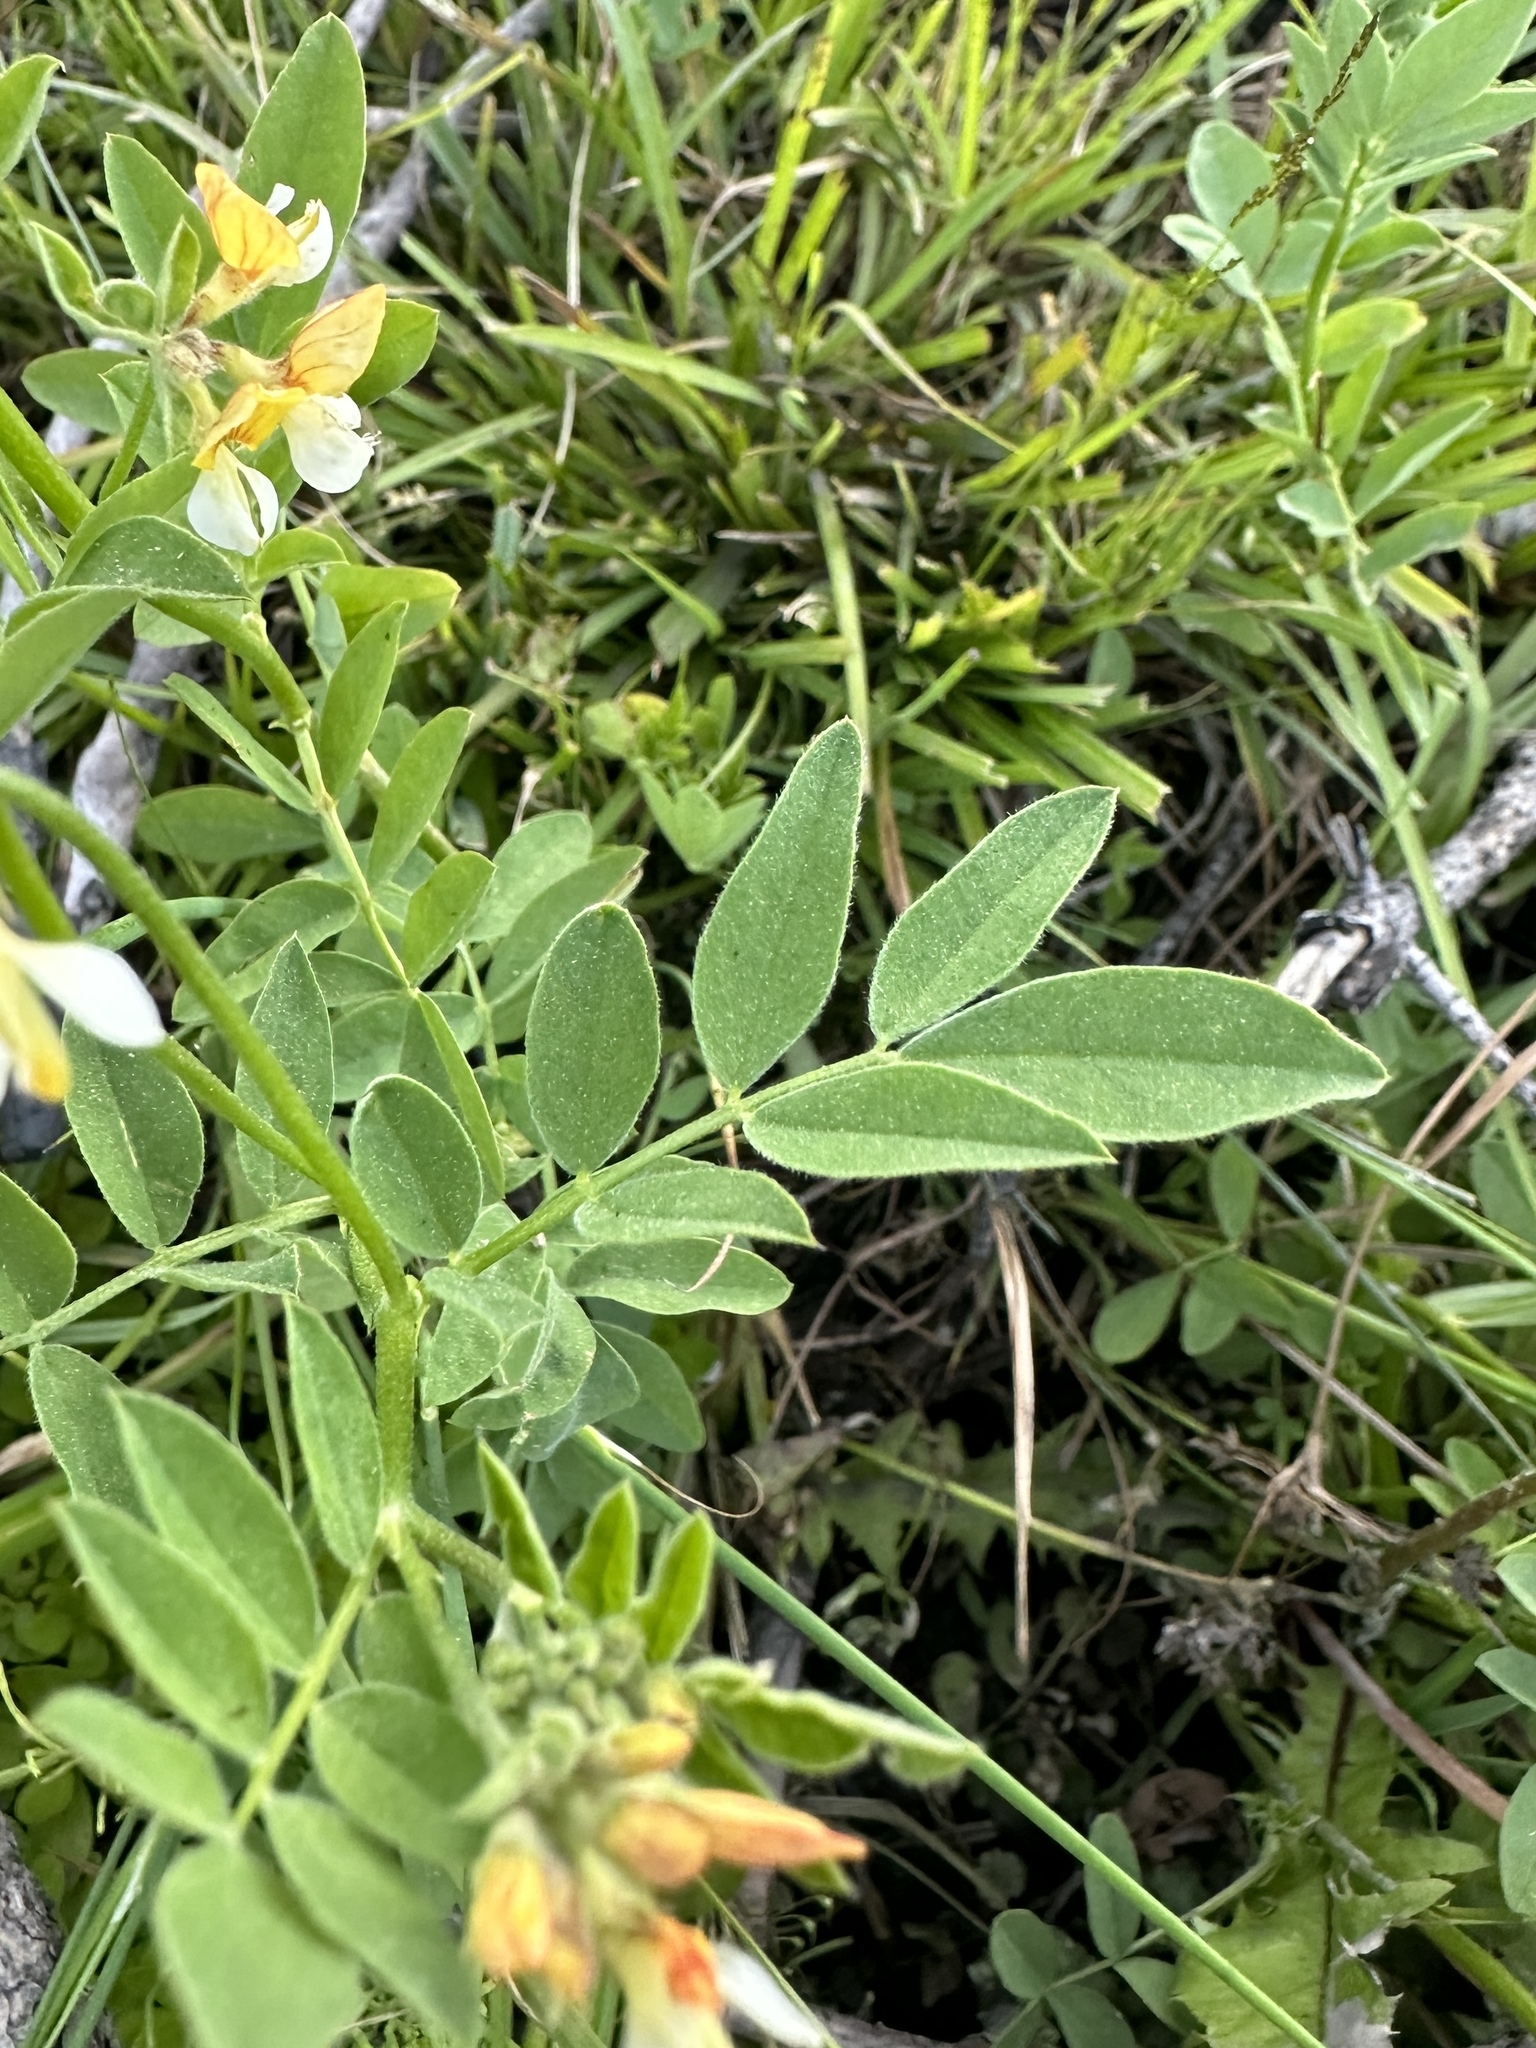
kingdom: Plantae
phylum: Tracheophyta
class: Magnoliopsida
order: Fabales
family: Fabaceae
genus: Hosackia
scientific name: Hosackia oblongifolia
